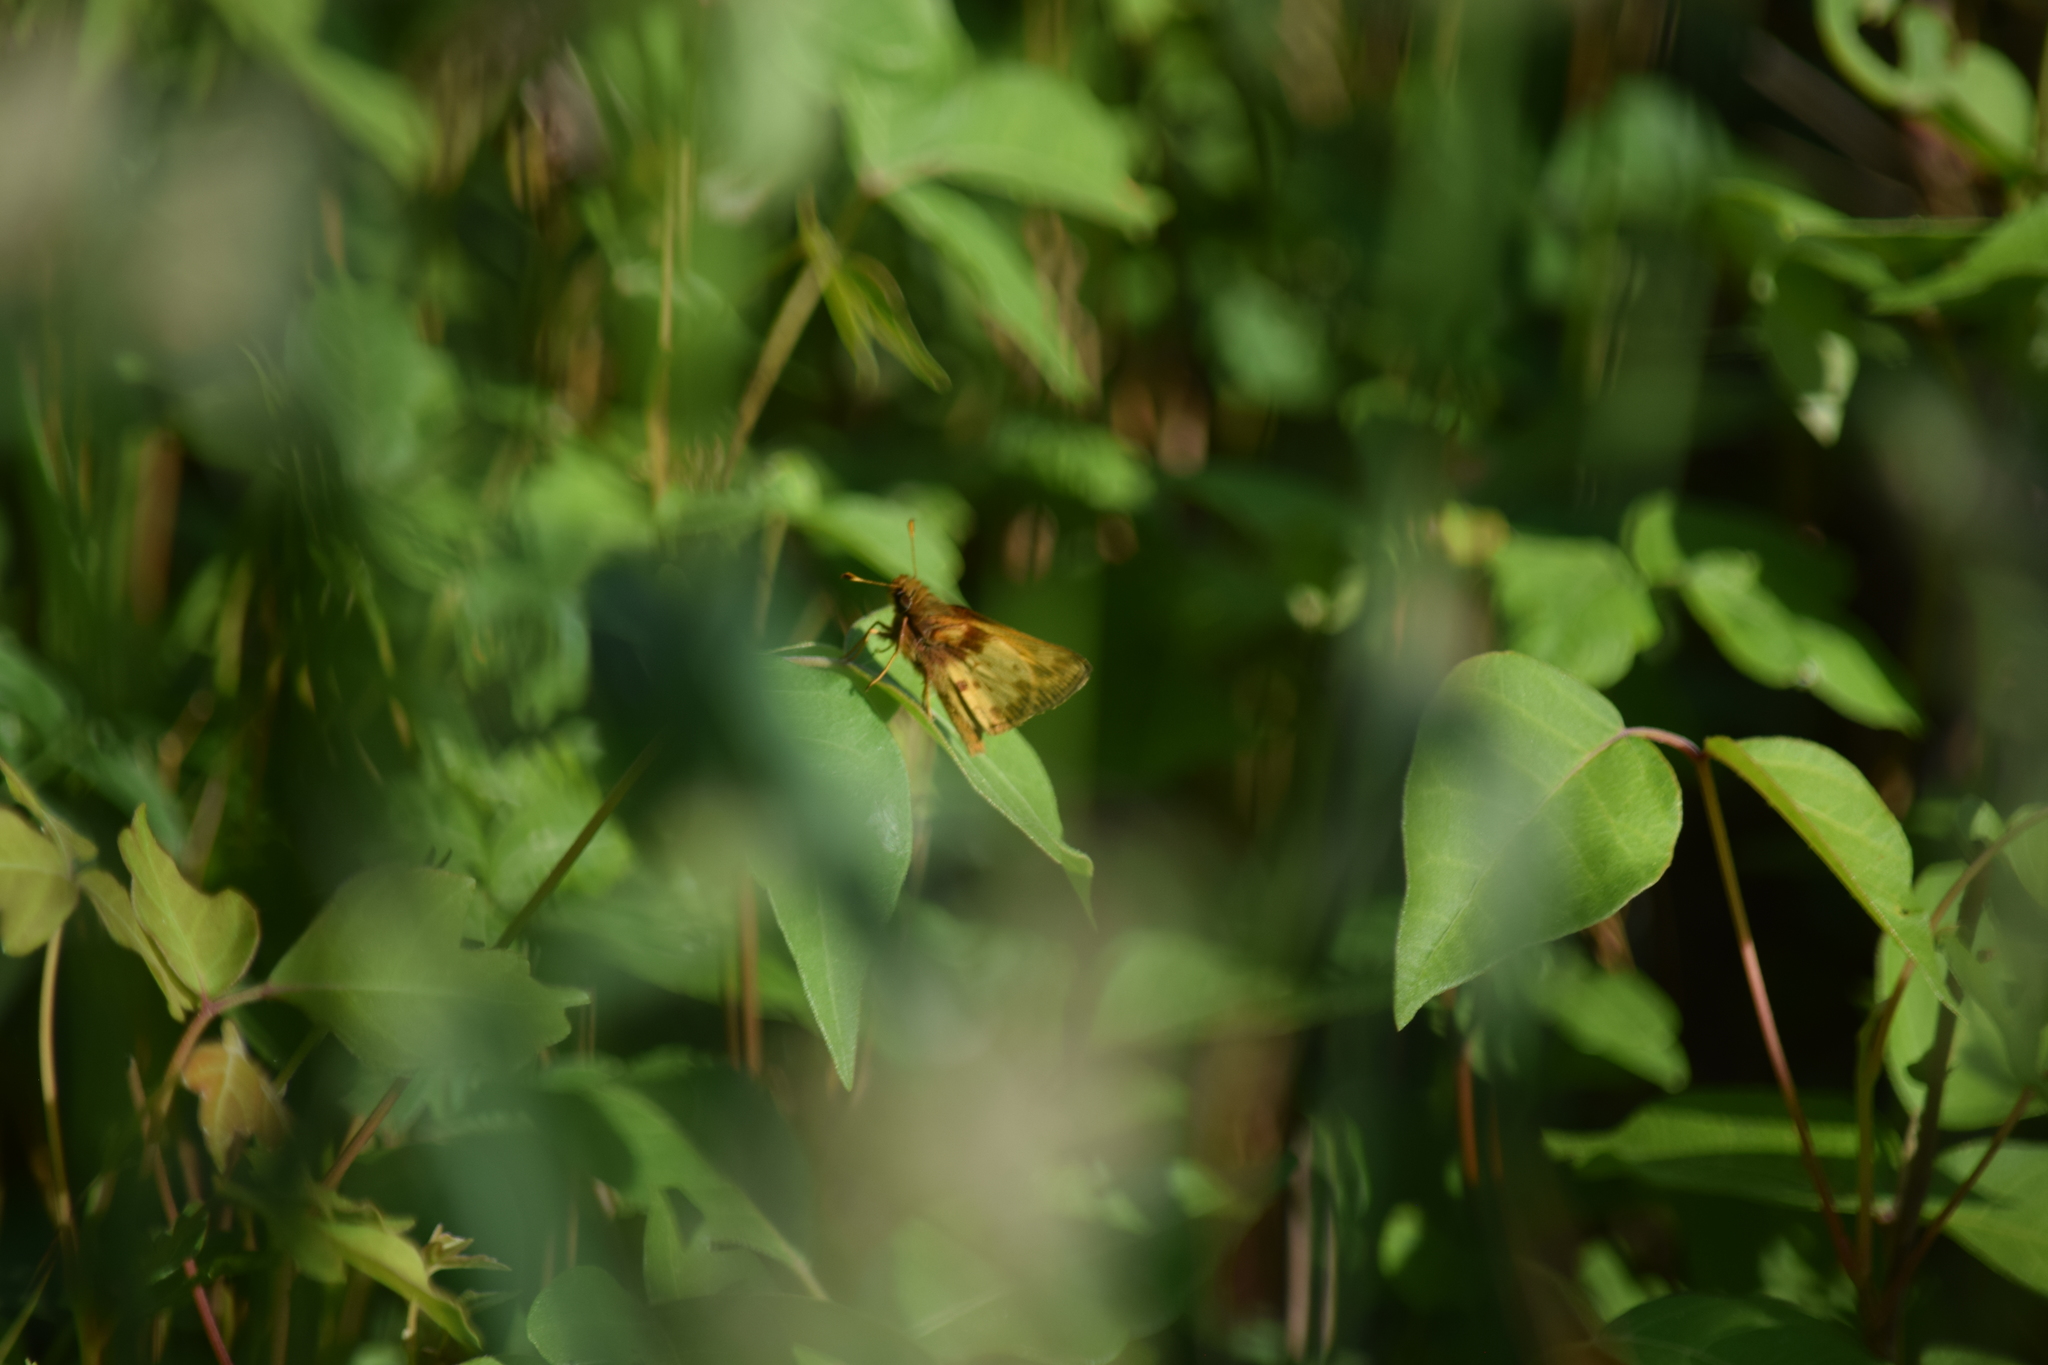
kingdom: Animalia
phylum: Arthropoda
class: Insecta
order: Lepidoptera
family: Hesperiidae
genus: Lon
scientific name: Lon zabulon
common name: Zabulon skipper
